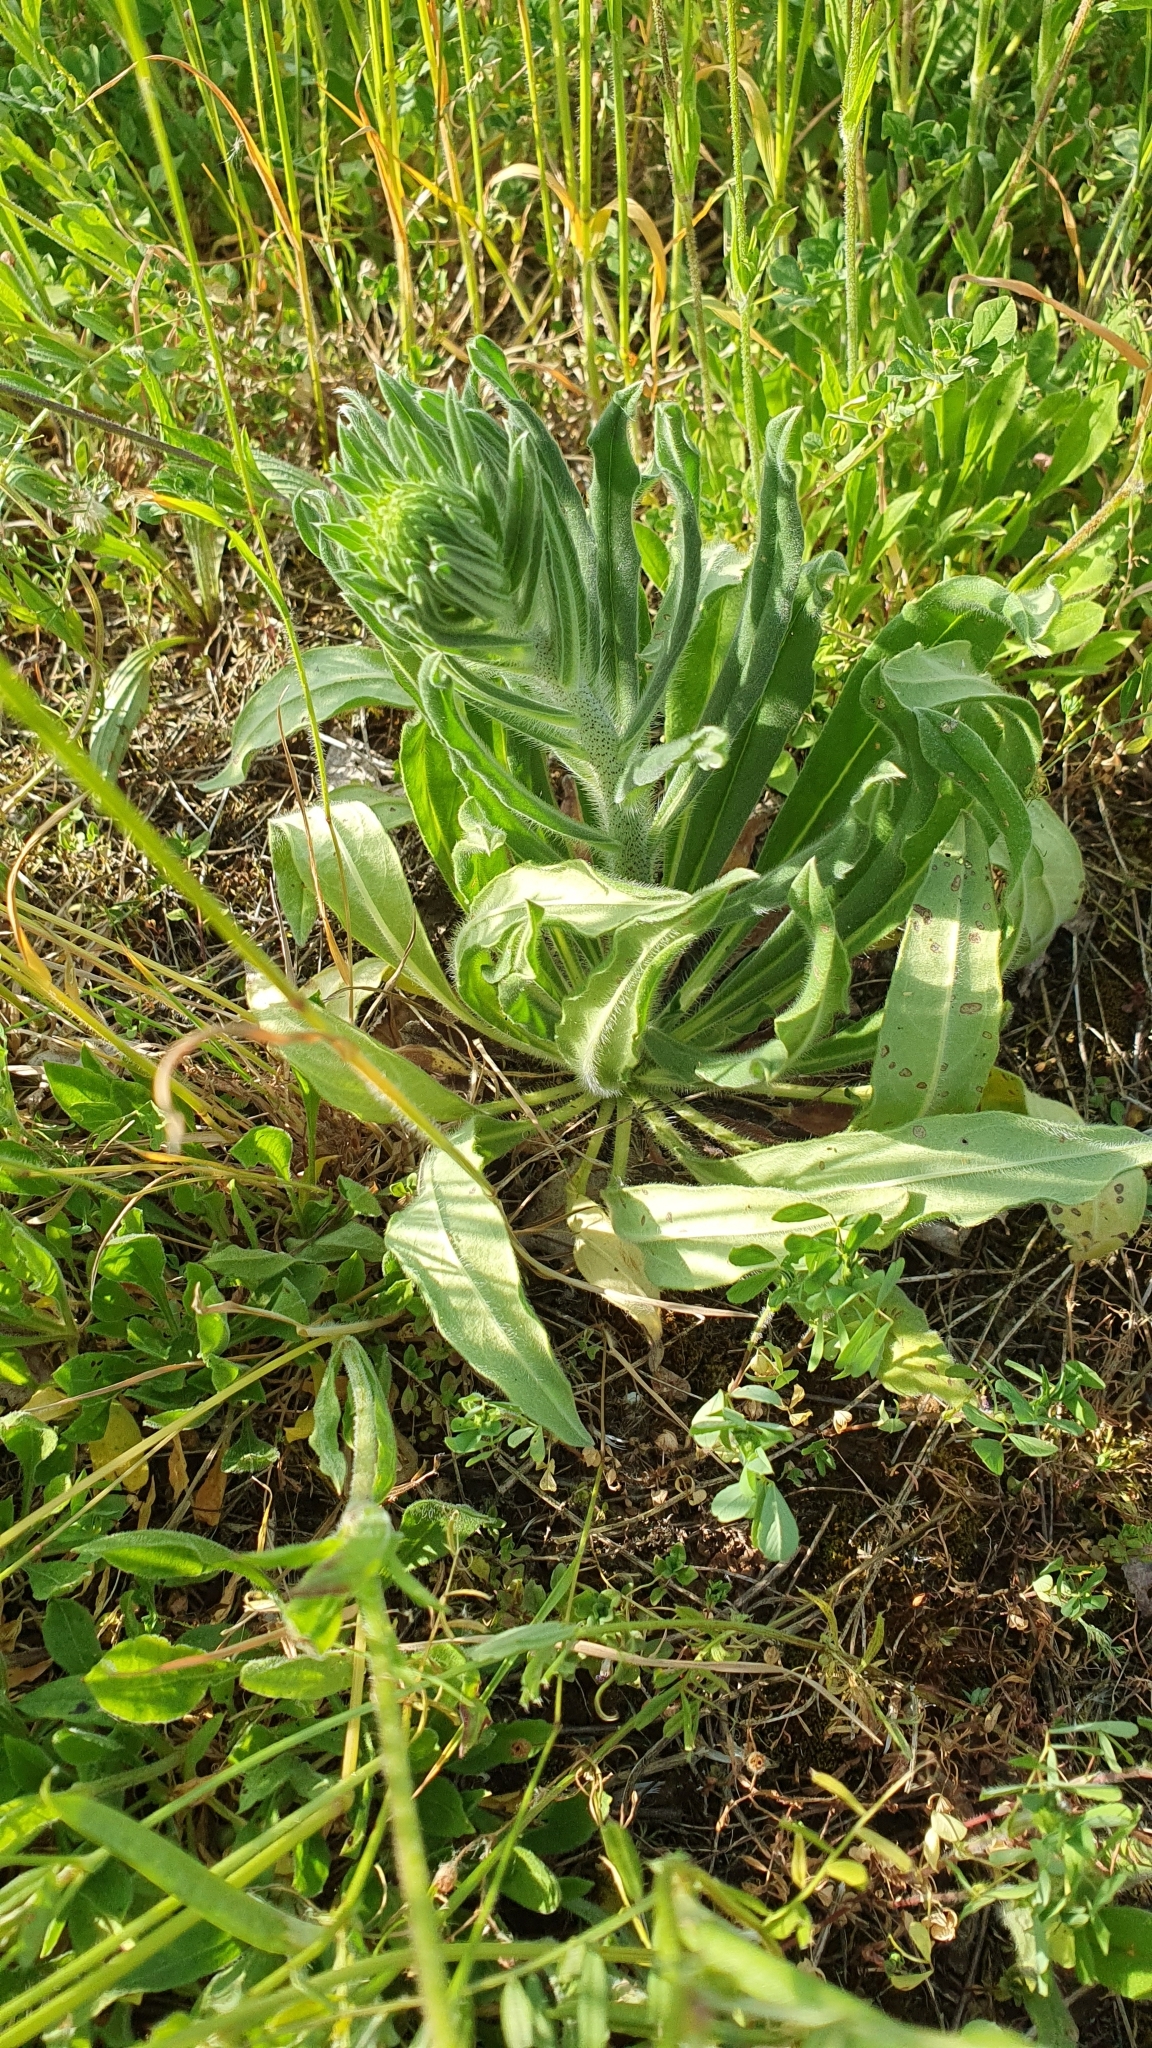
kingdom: Plantae
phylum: Tracheophyta
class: Magnoliopsida
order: Boraginales
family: Boraginaceae
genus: Echium
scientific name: Echium vulgare
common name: Common viper's bugloss
